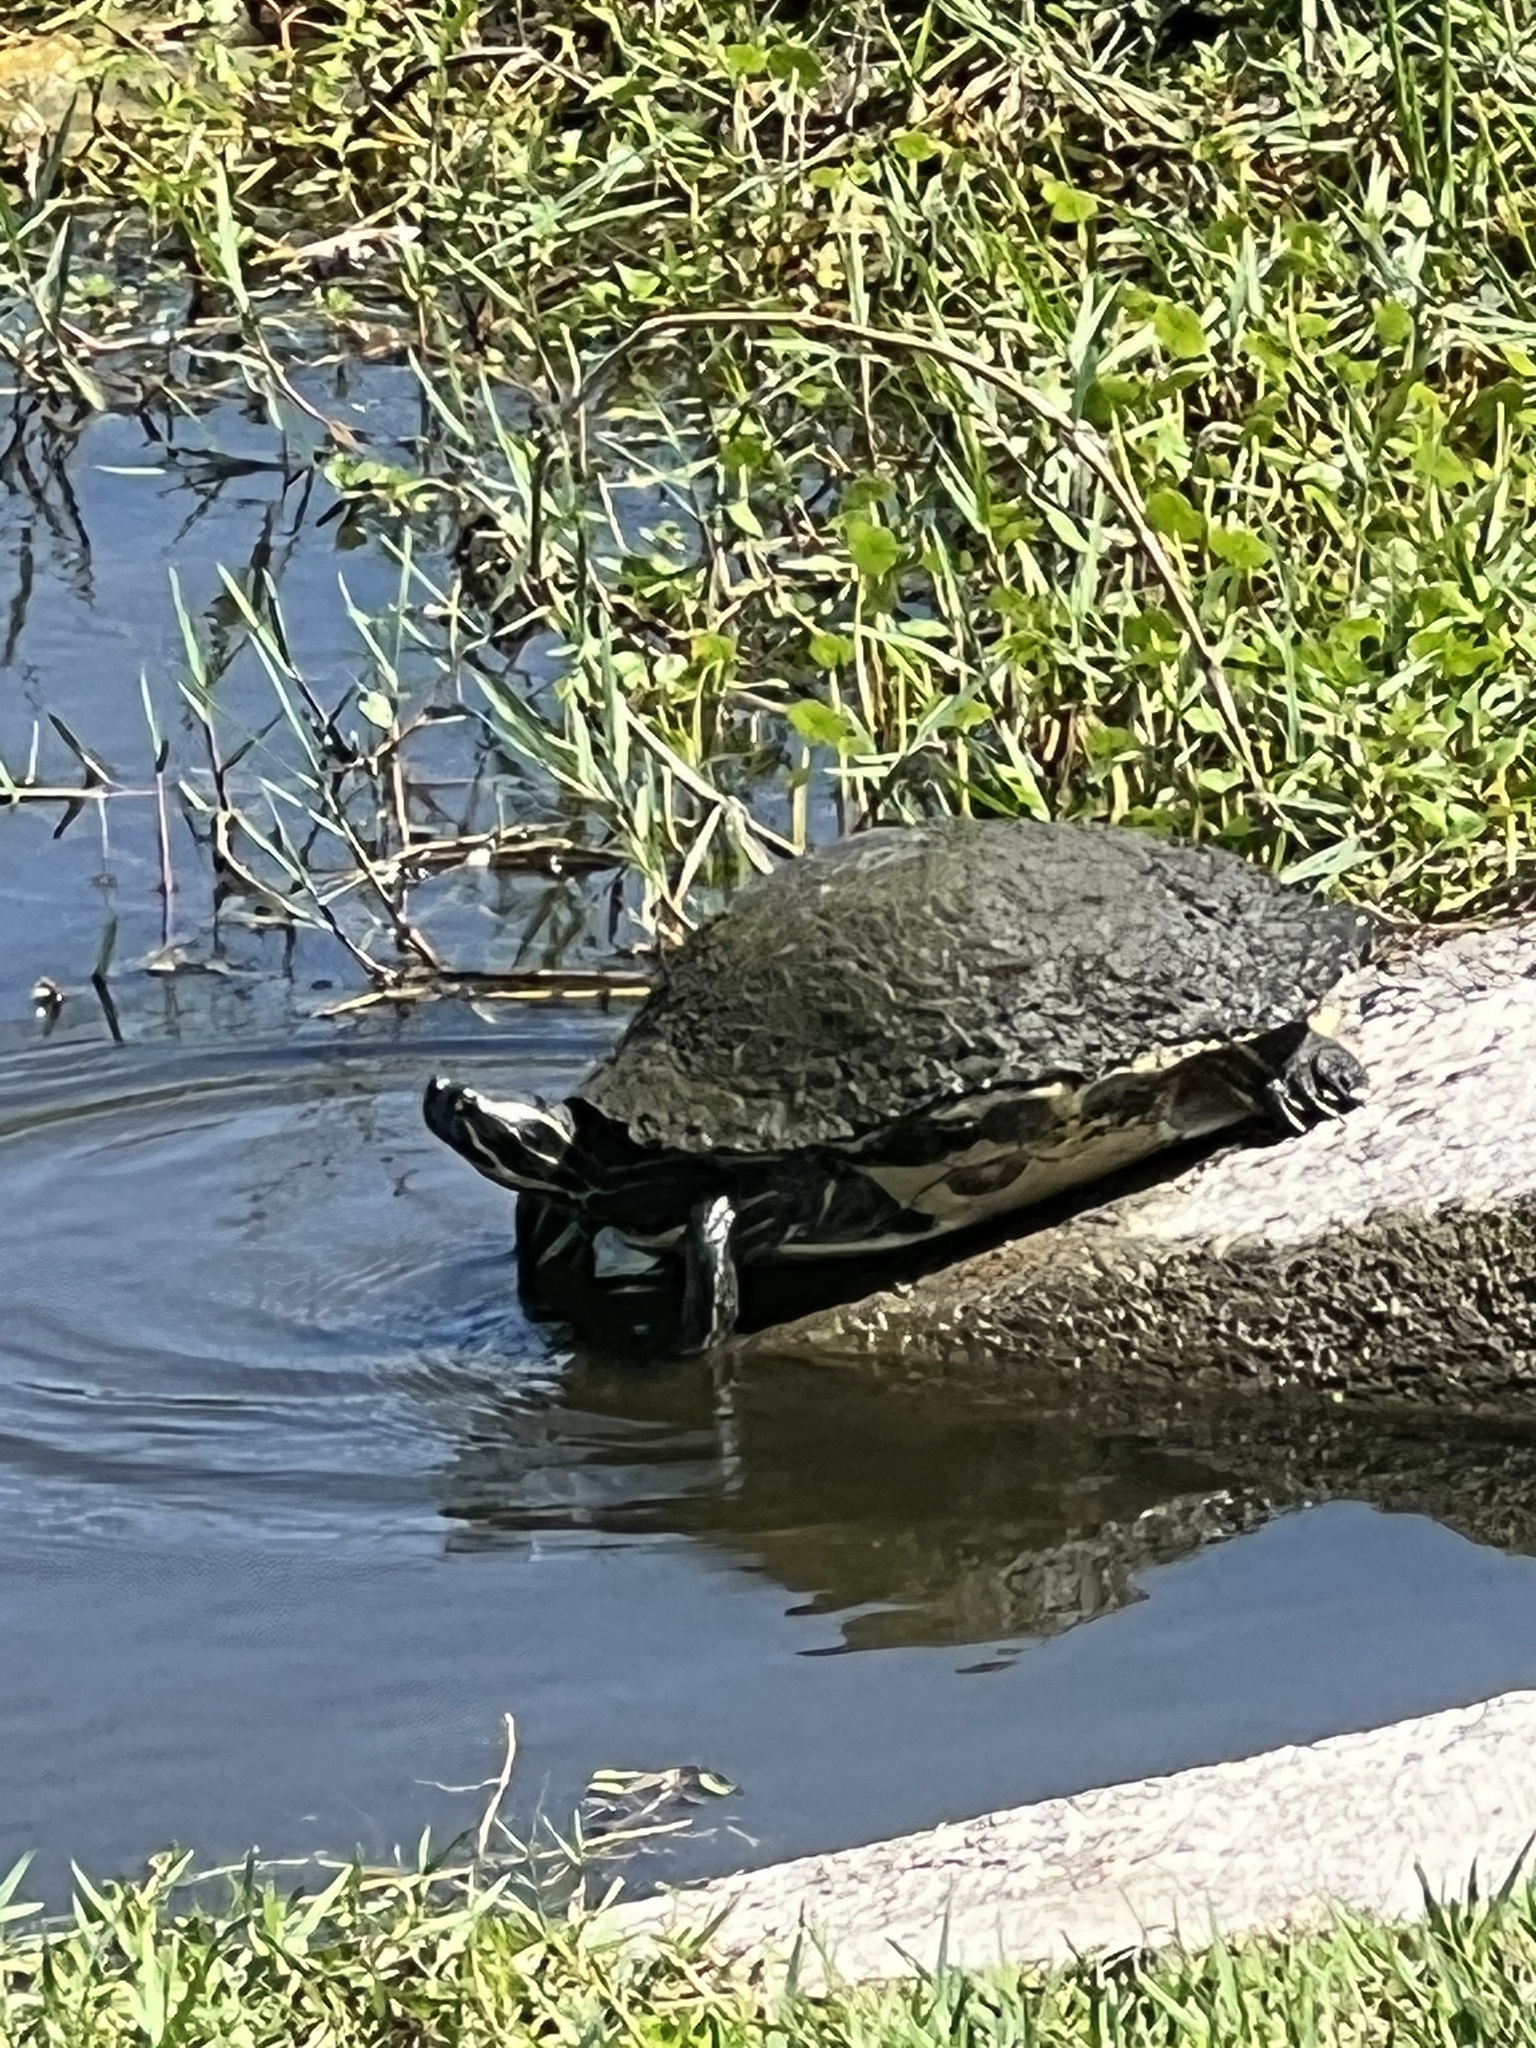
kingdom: Animalia
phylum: Chordata
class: Testudines
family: Emydidae
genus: Pseudemys
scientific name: Pseudemys peninsularis
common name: Peninsula cooter
